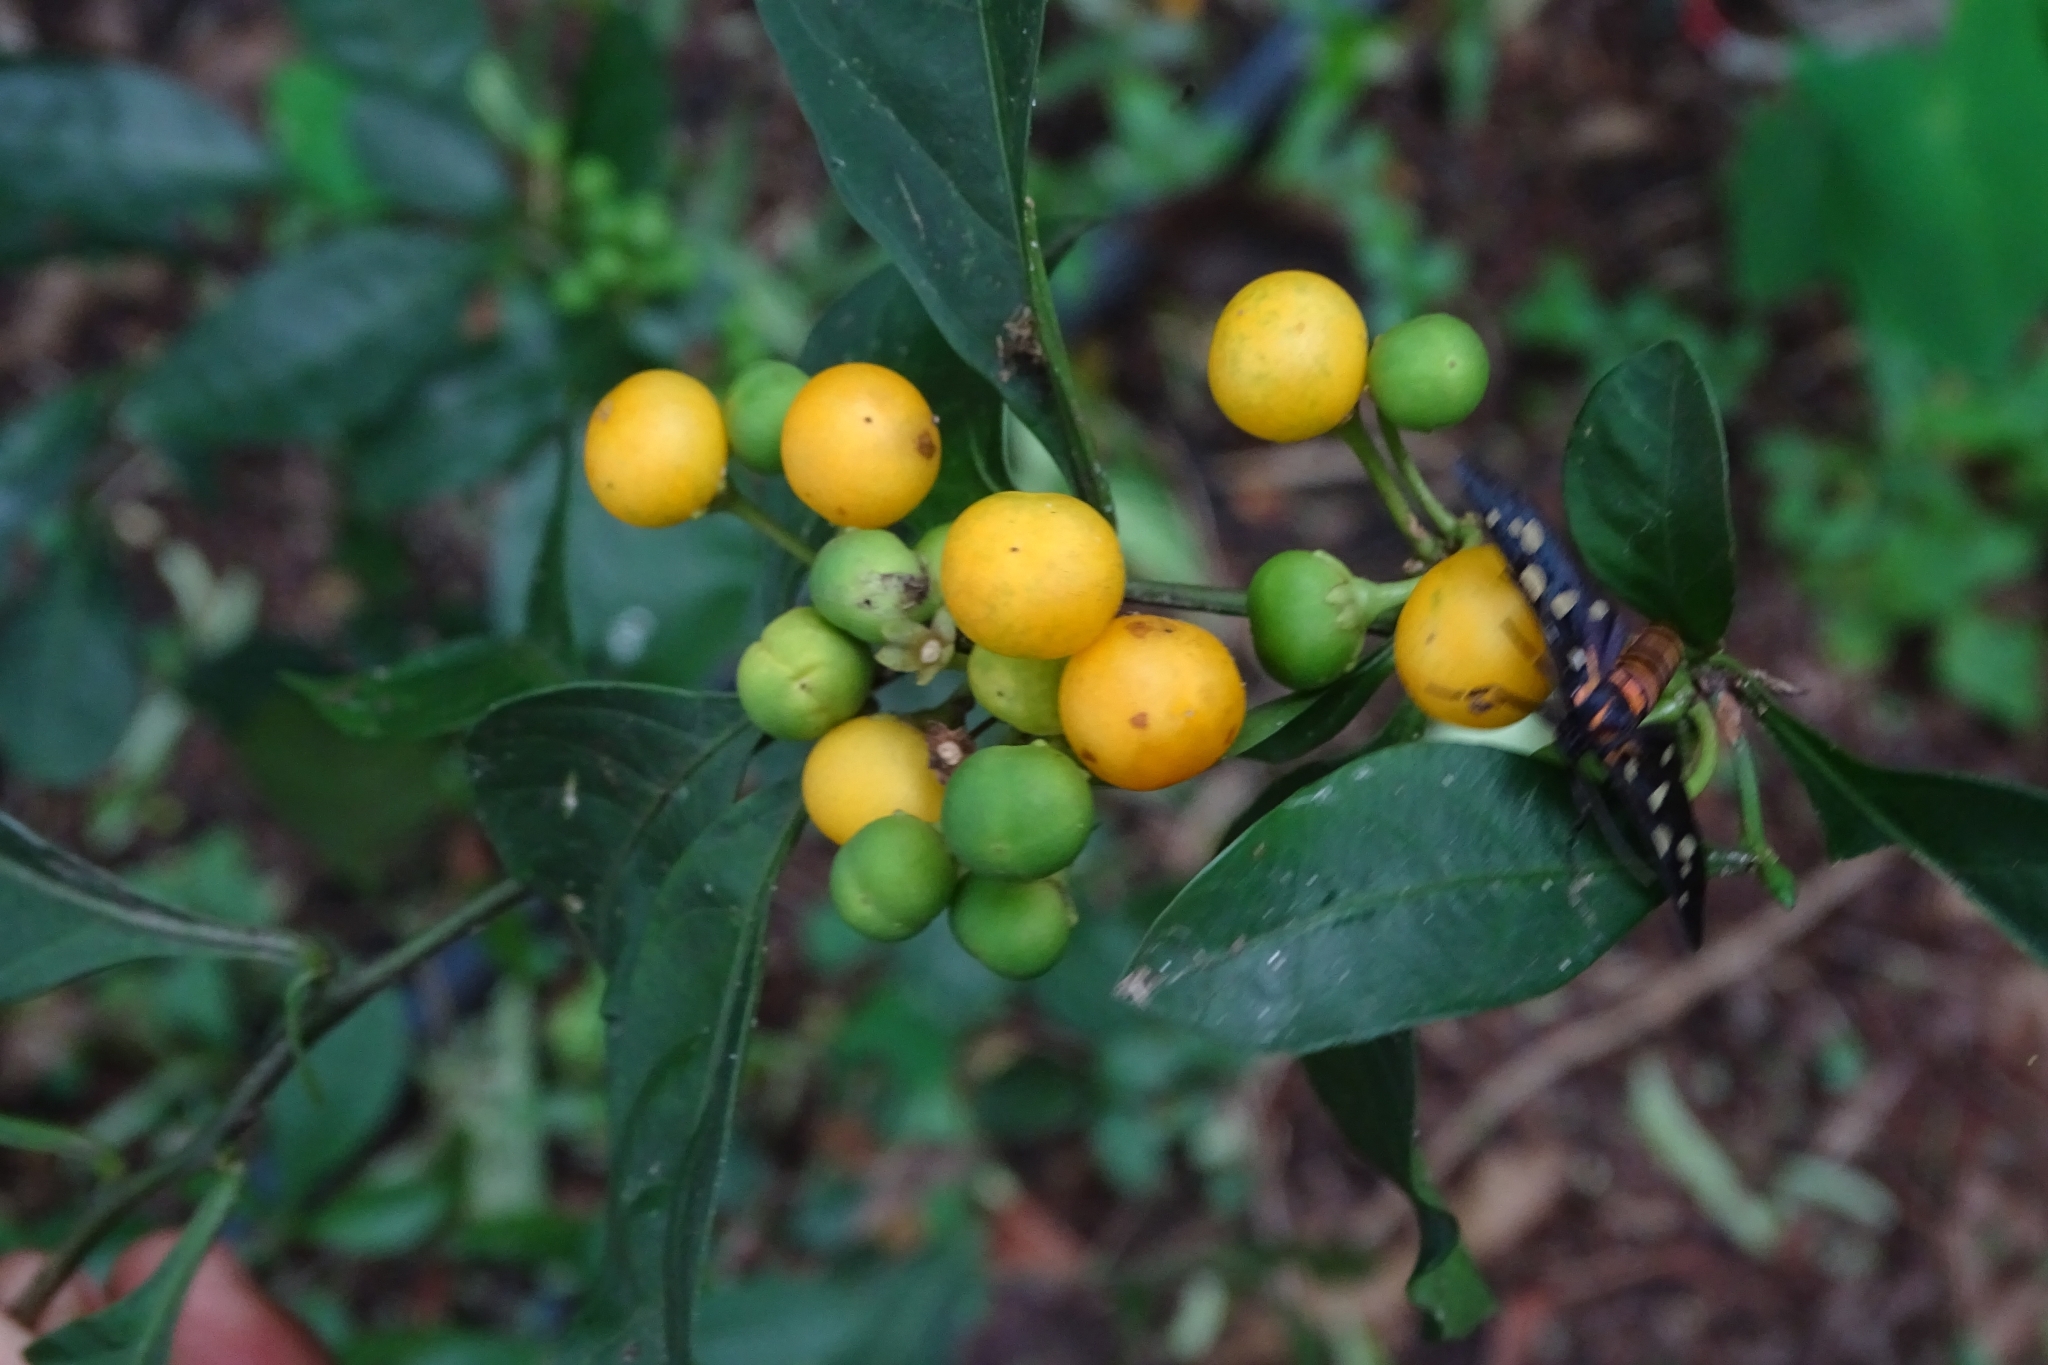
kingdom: Plantae
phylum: Tracheophyta
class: Magnoliopsida
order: Solanales
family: Solanaceae
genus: Solanum
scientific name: Solanum diphyllum
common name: Twoleaf nightshade
